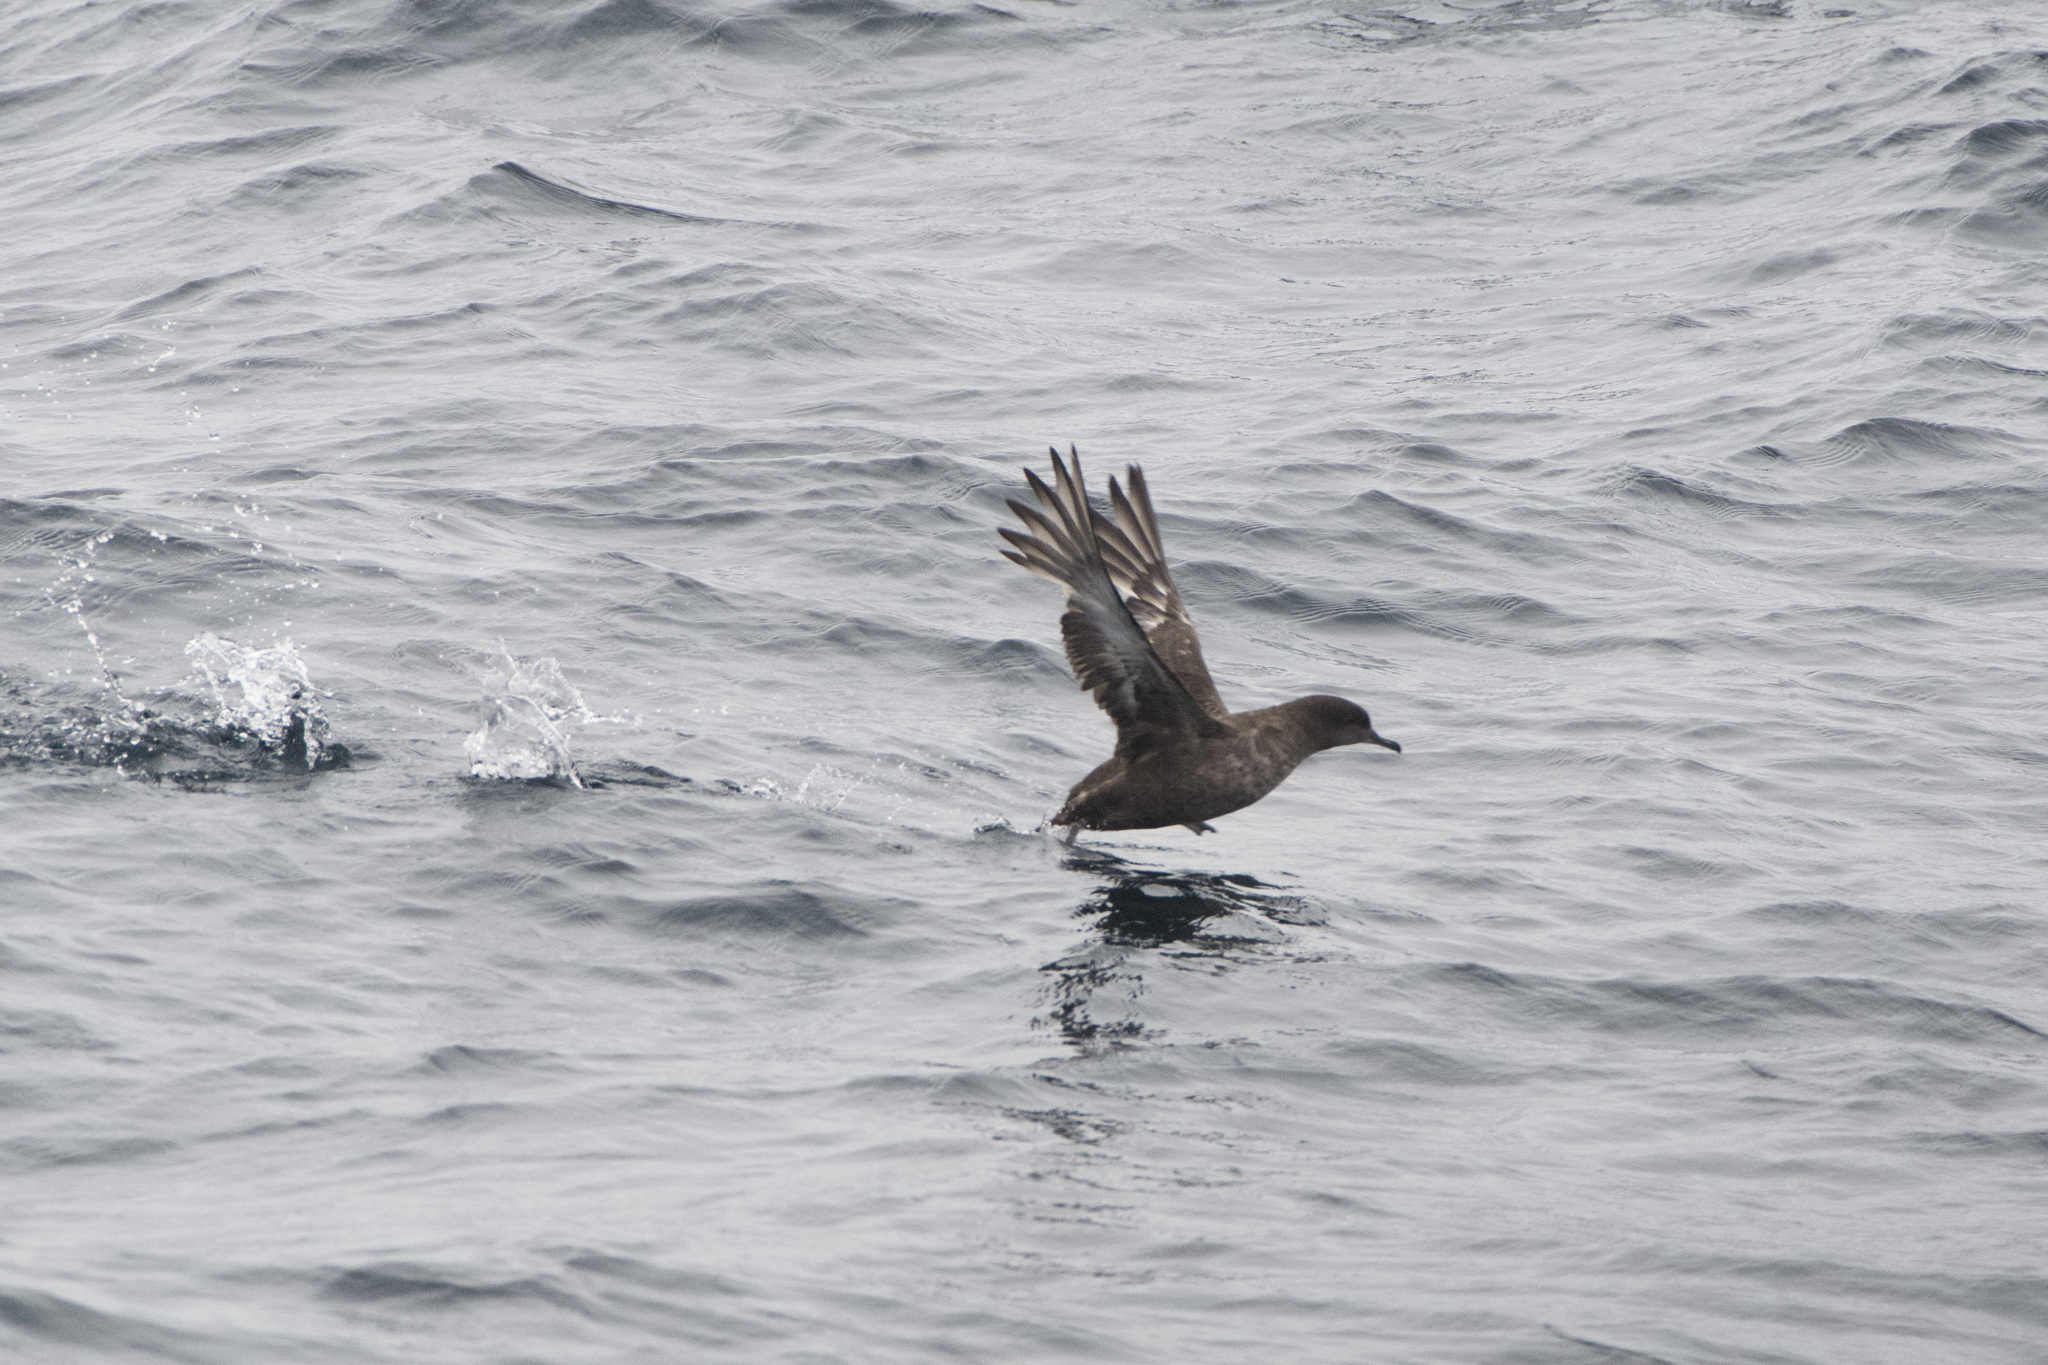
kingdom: Animalia
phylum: Chordata
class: Aves
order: Procellariiformes
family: Procellariidae
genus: Puffinus
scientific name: Puffinus griseus
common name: Sooty shearwater
